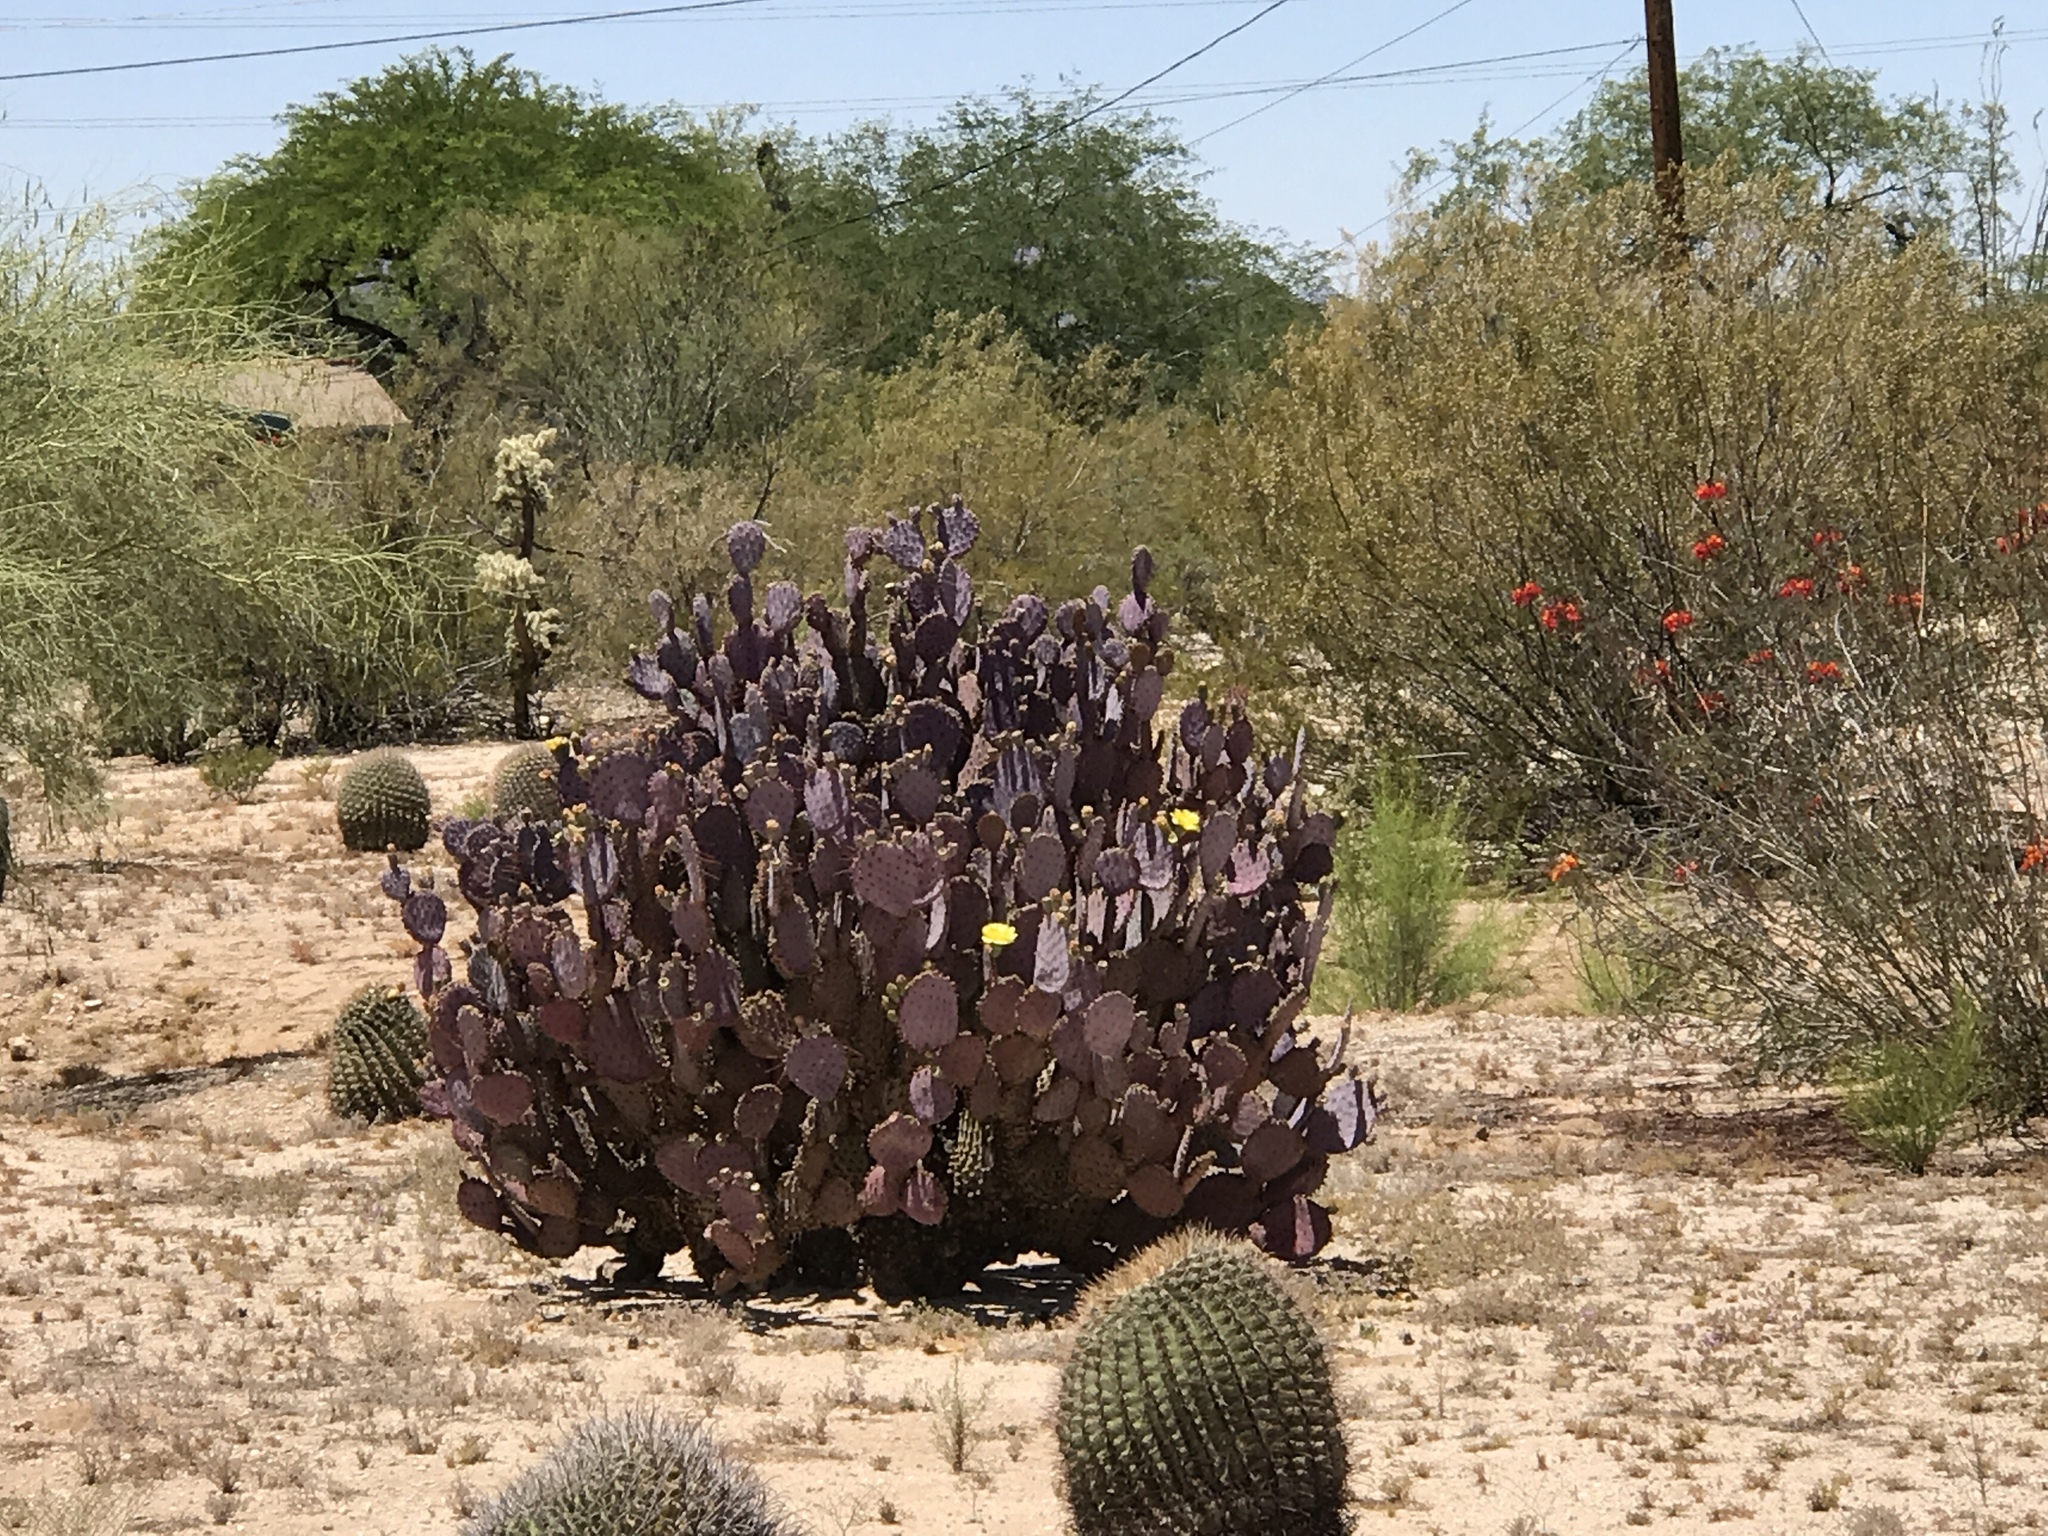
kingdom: Plantae
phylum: Tracheophyta
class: Magnoliopsida
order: Caryophyllales
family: Cactaceae
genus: Opuntia
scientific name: Opuntia gosseliniana
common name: Violet prickly-pear
